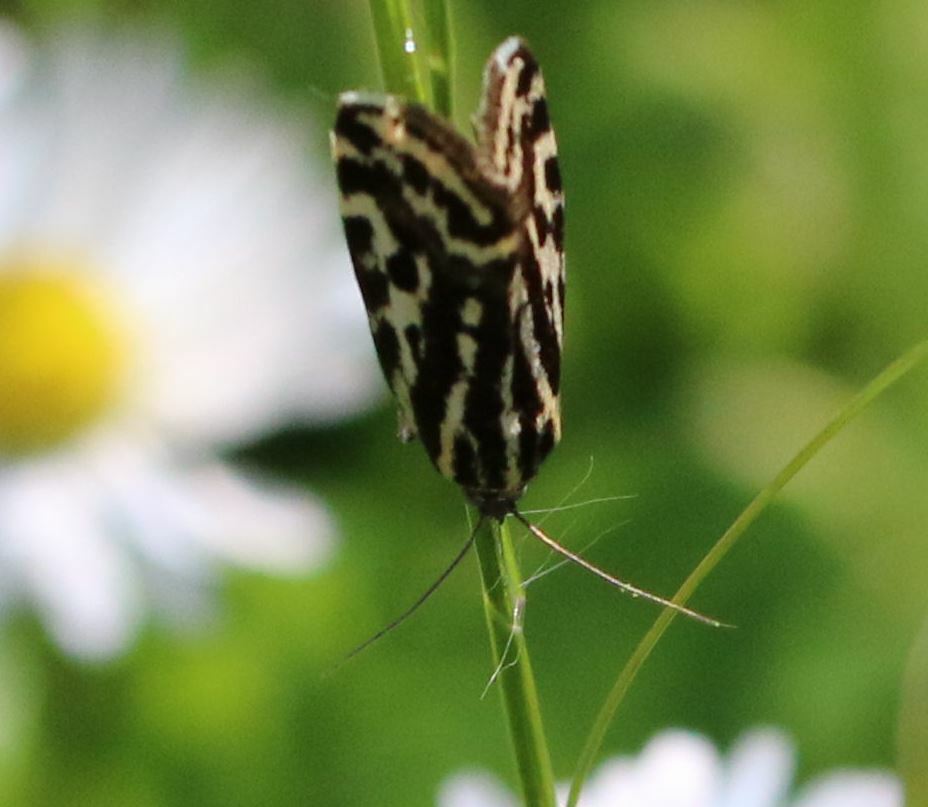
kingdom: Animalia
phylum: Arthropoda
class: Insecta
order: Lepidoptera
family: Noctuidae
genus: Acontia
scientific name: Acontia trabealis
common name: Spotted sulphur
